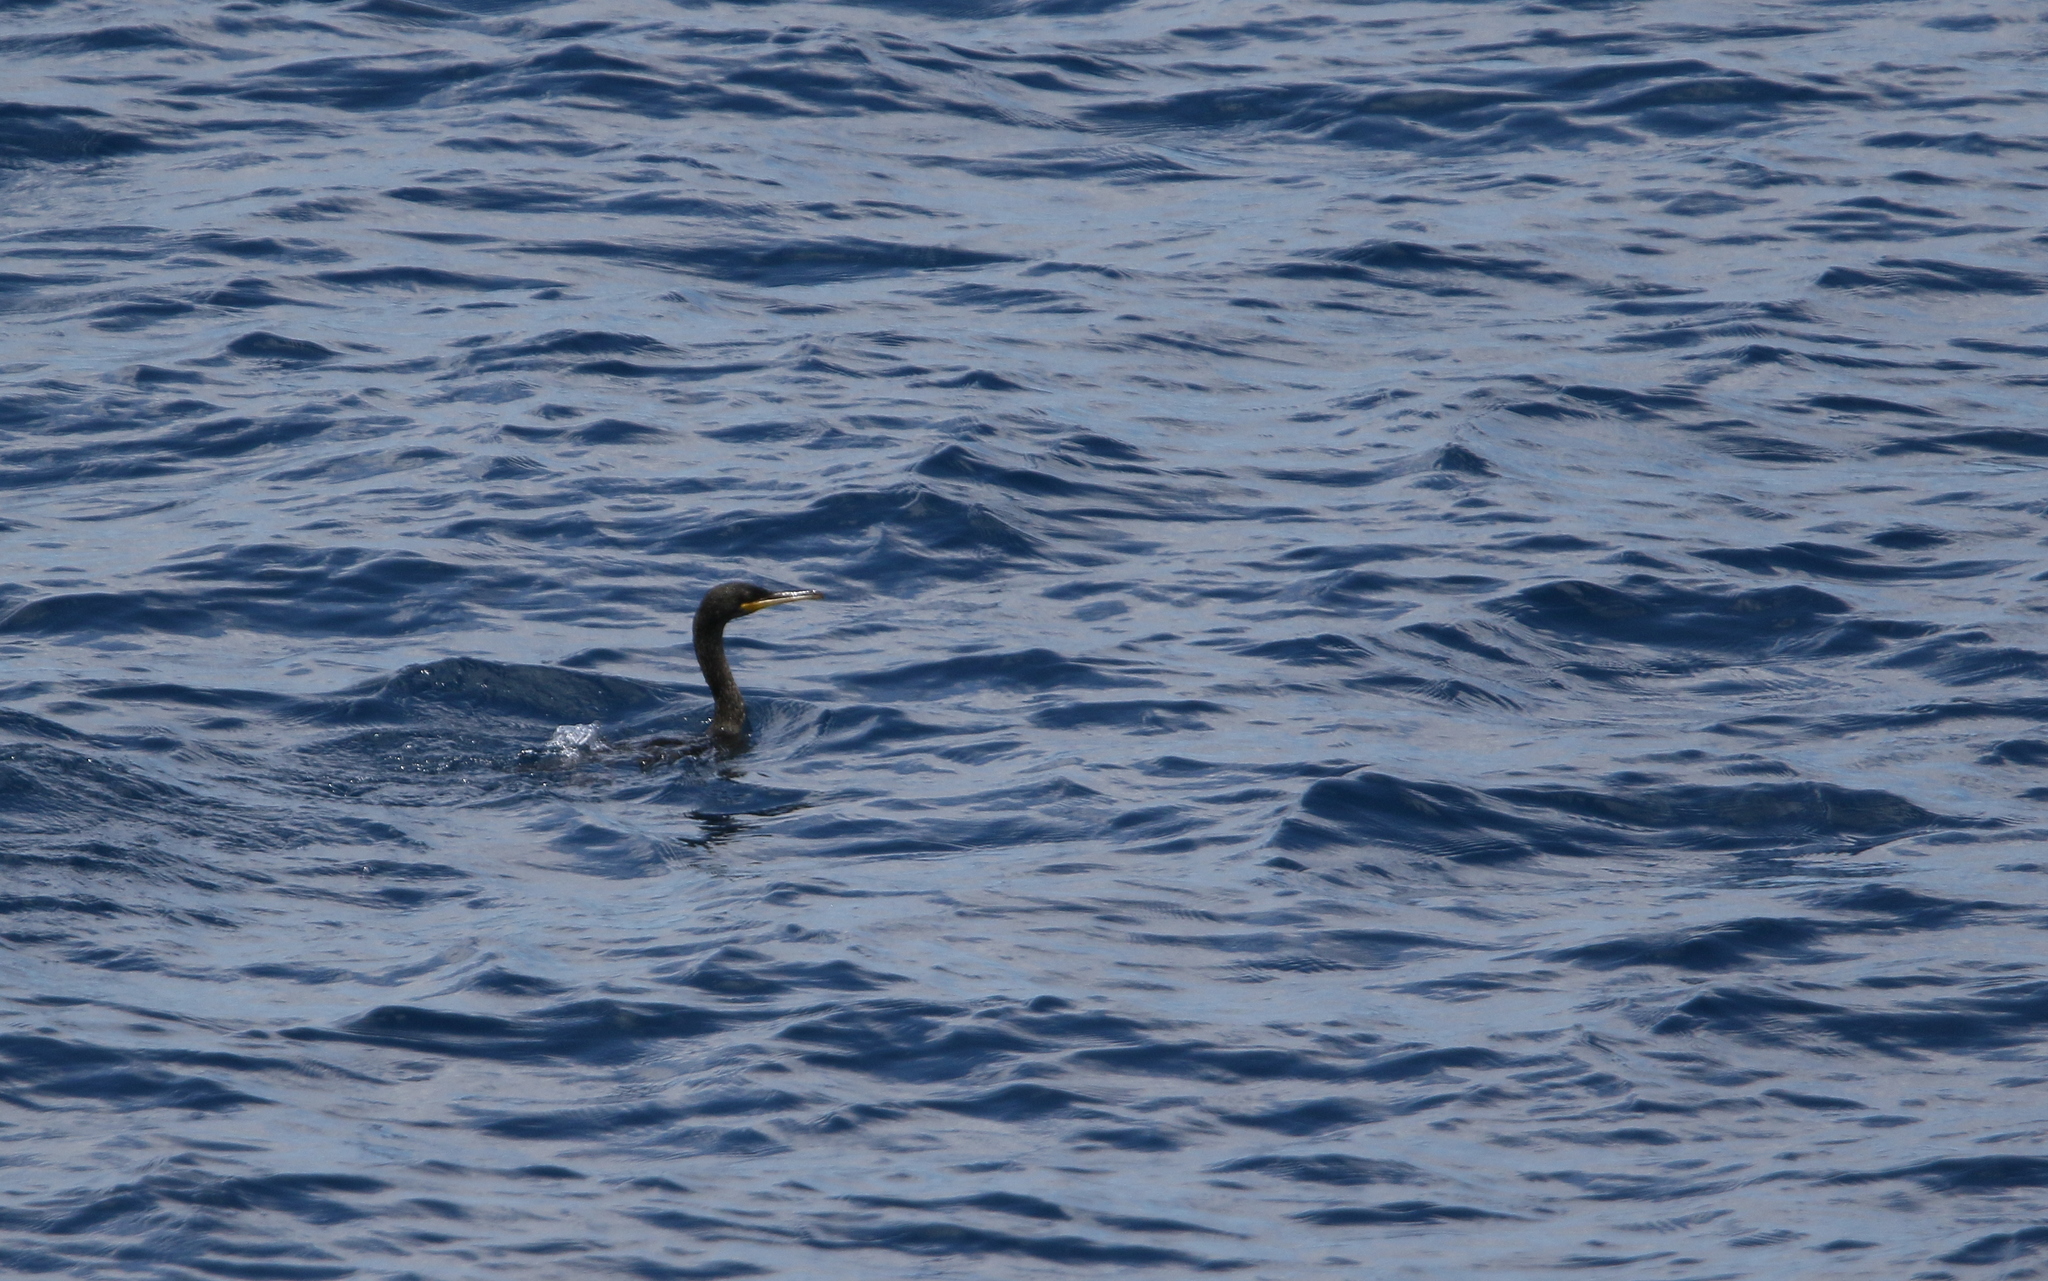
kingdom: Animalia
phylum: Chordata
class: Aves
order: Suliformes
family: Phalacrocoracidae
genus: Phalacrocorax
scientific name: Phalacrocorax aristotelis
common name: European shag
